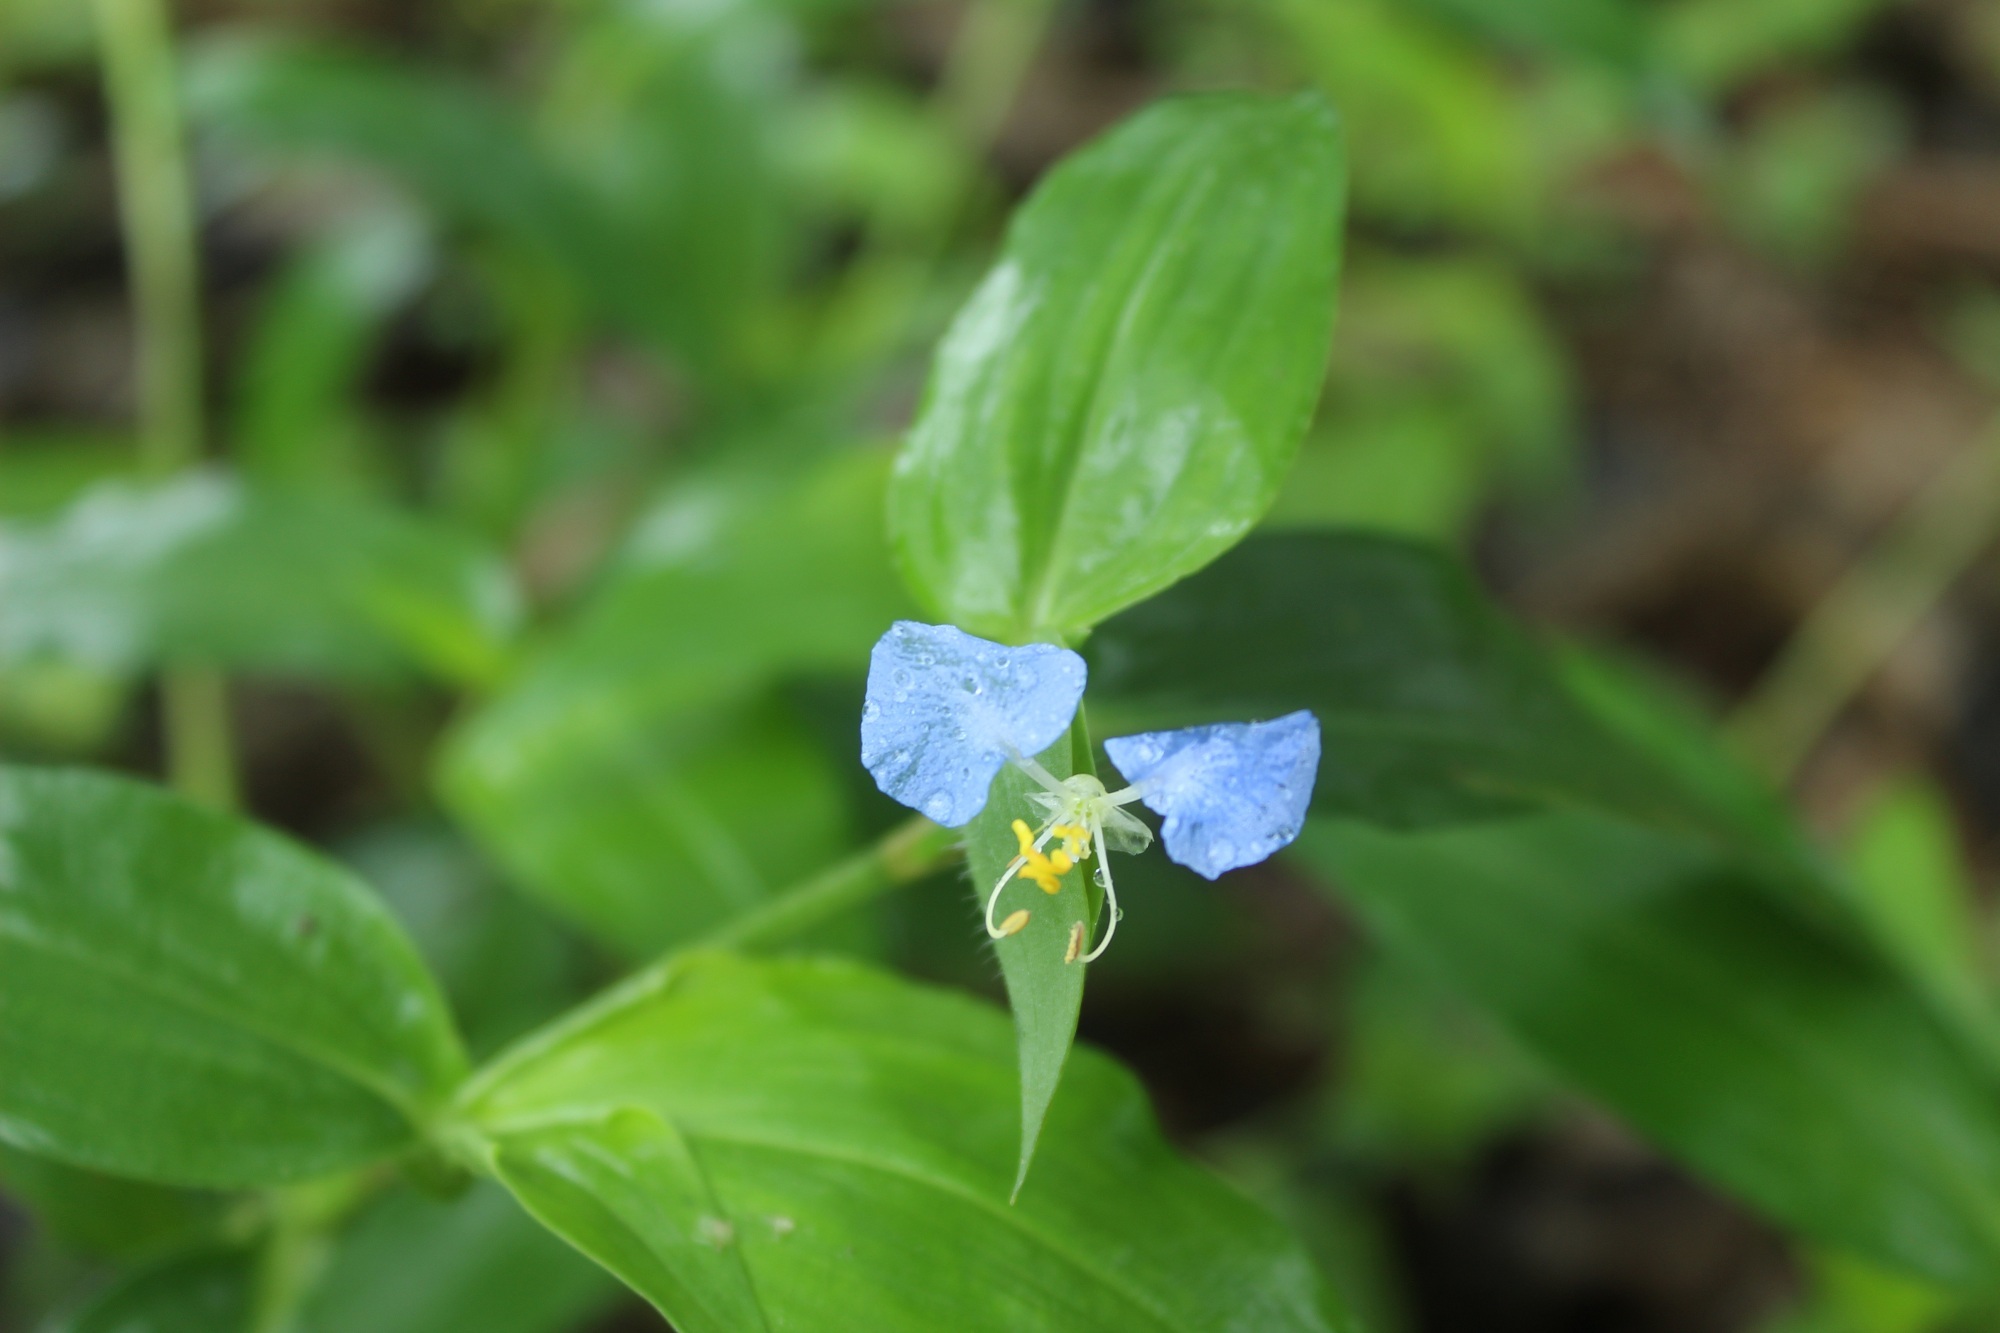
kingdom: Plantae
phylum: Tracheophyta
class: Liliopsida
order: Commelinales
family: Commelinaceae
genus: Commelina
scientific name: Commelina erecta
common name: Blousel blommetjie
